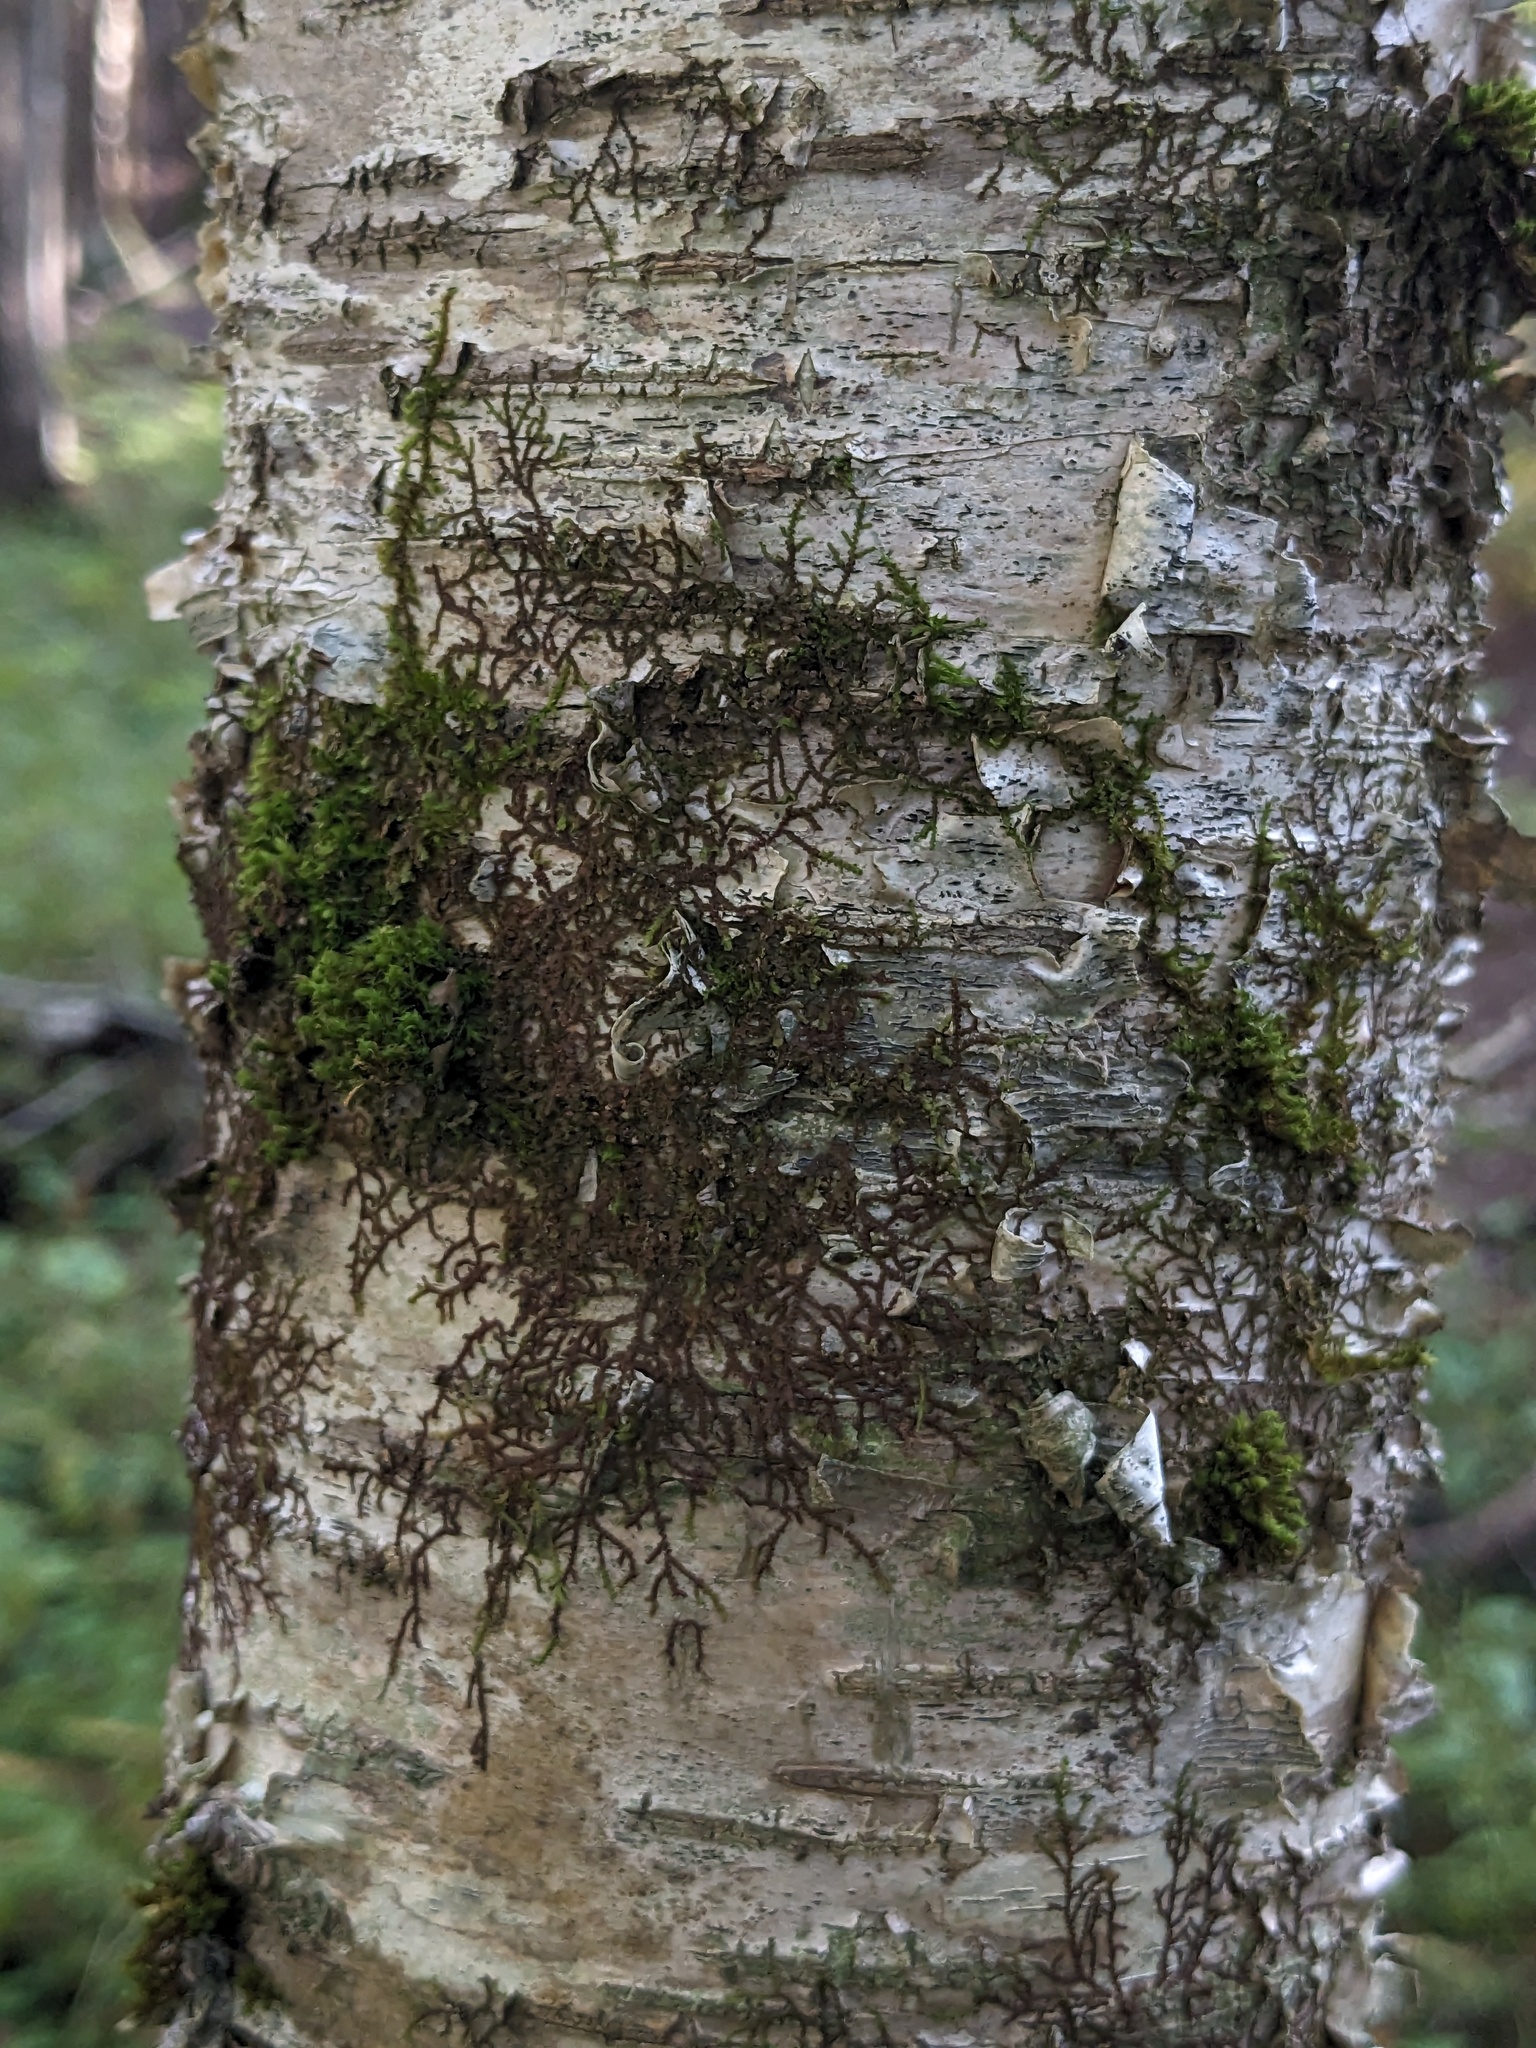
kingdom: Plantae
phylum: Tracheophyta
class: Magnoliopsida
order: Fagales
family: Betulaceae
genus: Betula
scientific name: Betula alleghaniensis
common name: Yellow birch
